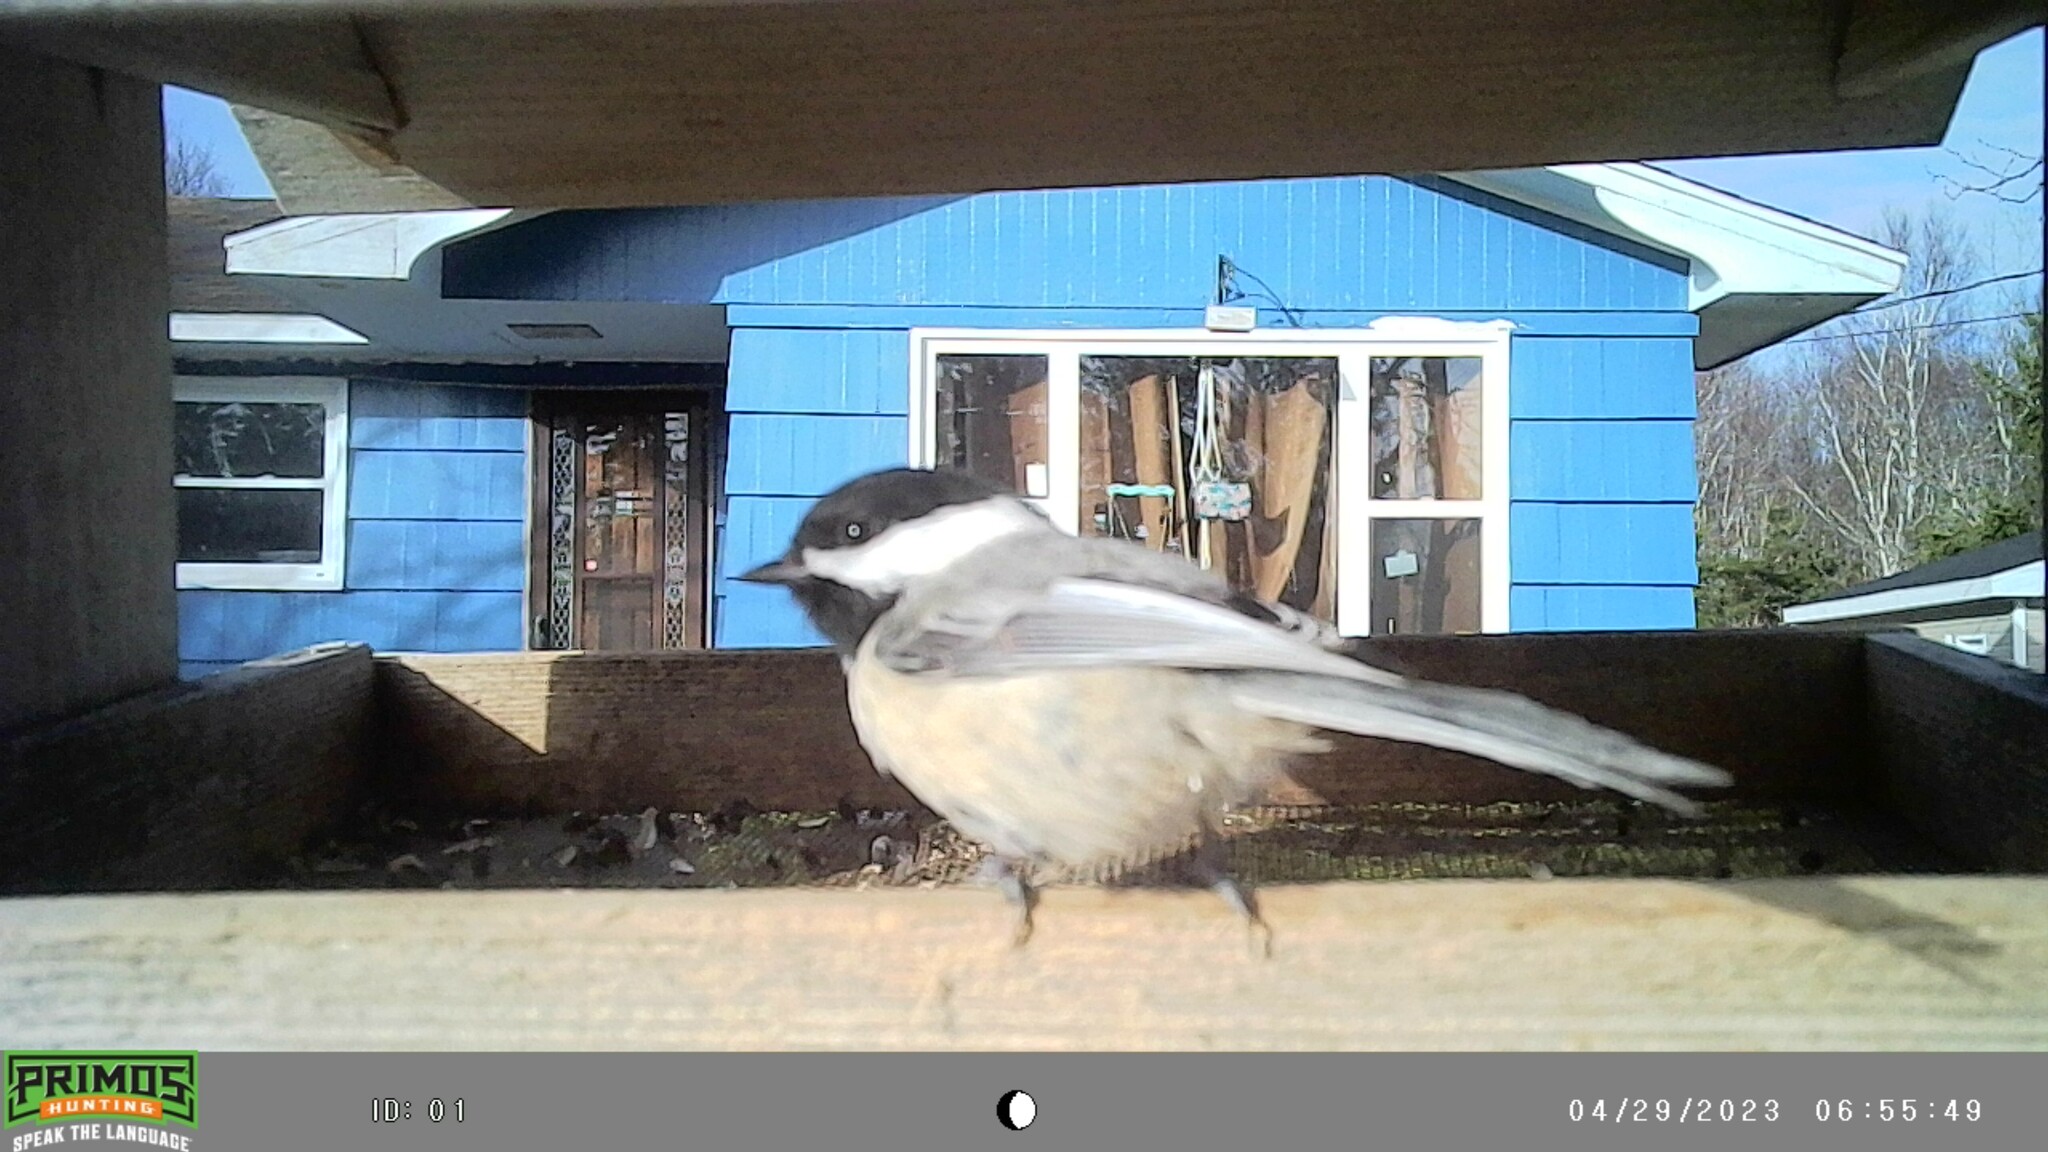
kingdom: Animalia
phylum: Chordata
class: Aves
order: Passeriformes
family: Paridae
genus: Poecile
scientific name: Poecile atricapillus
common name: Black-capped chickadee
